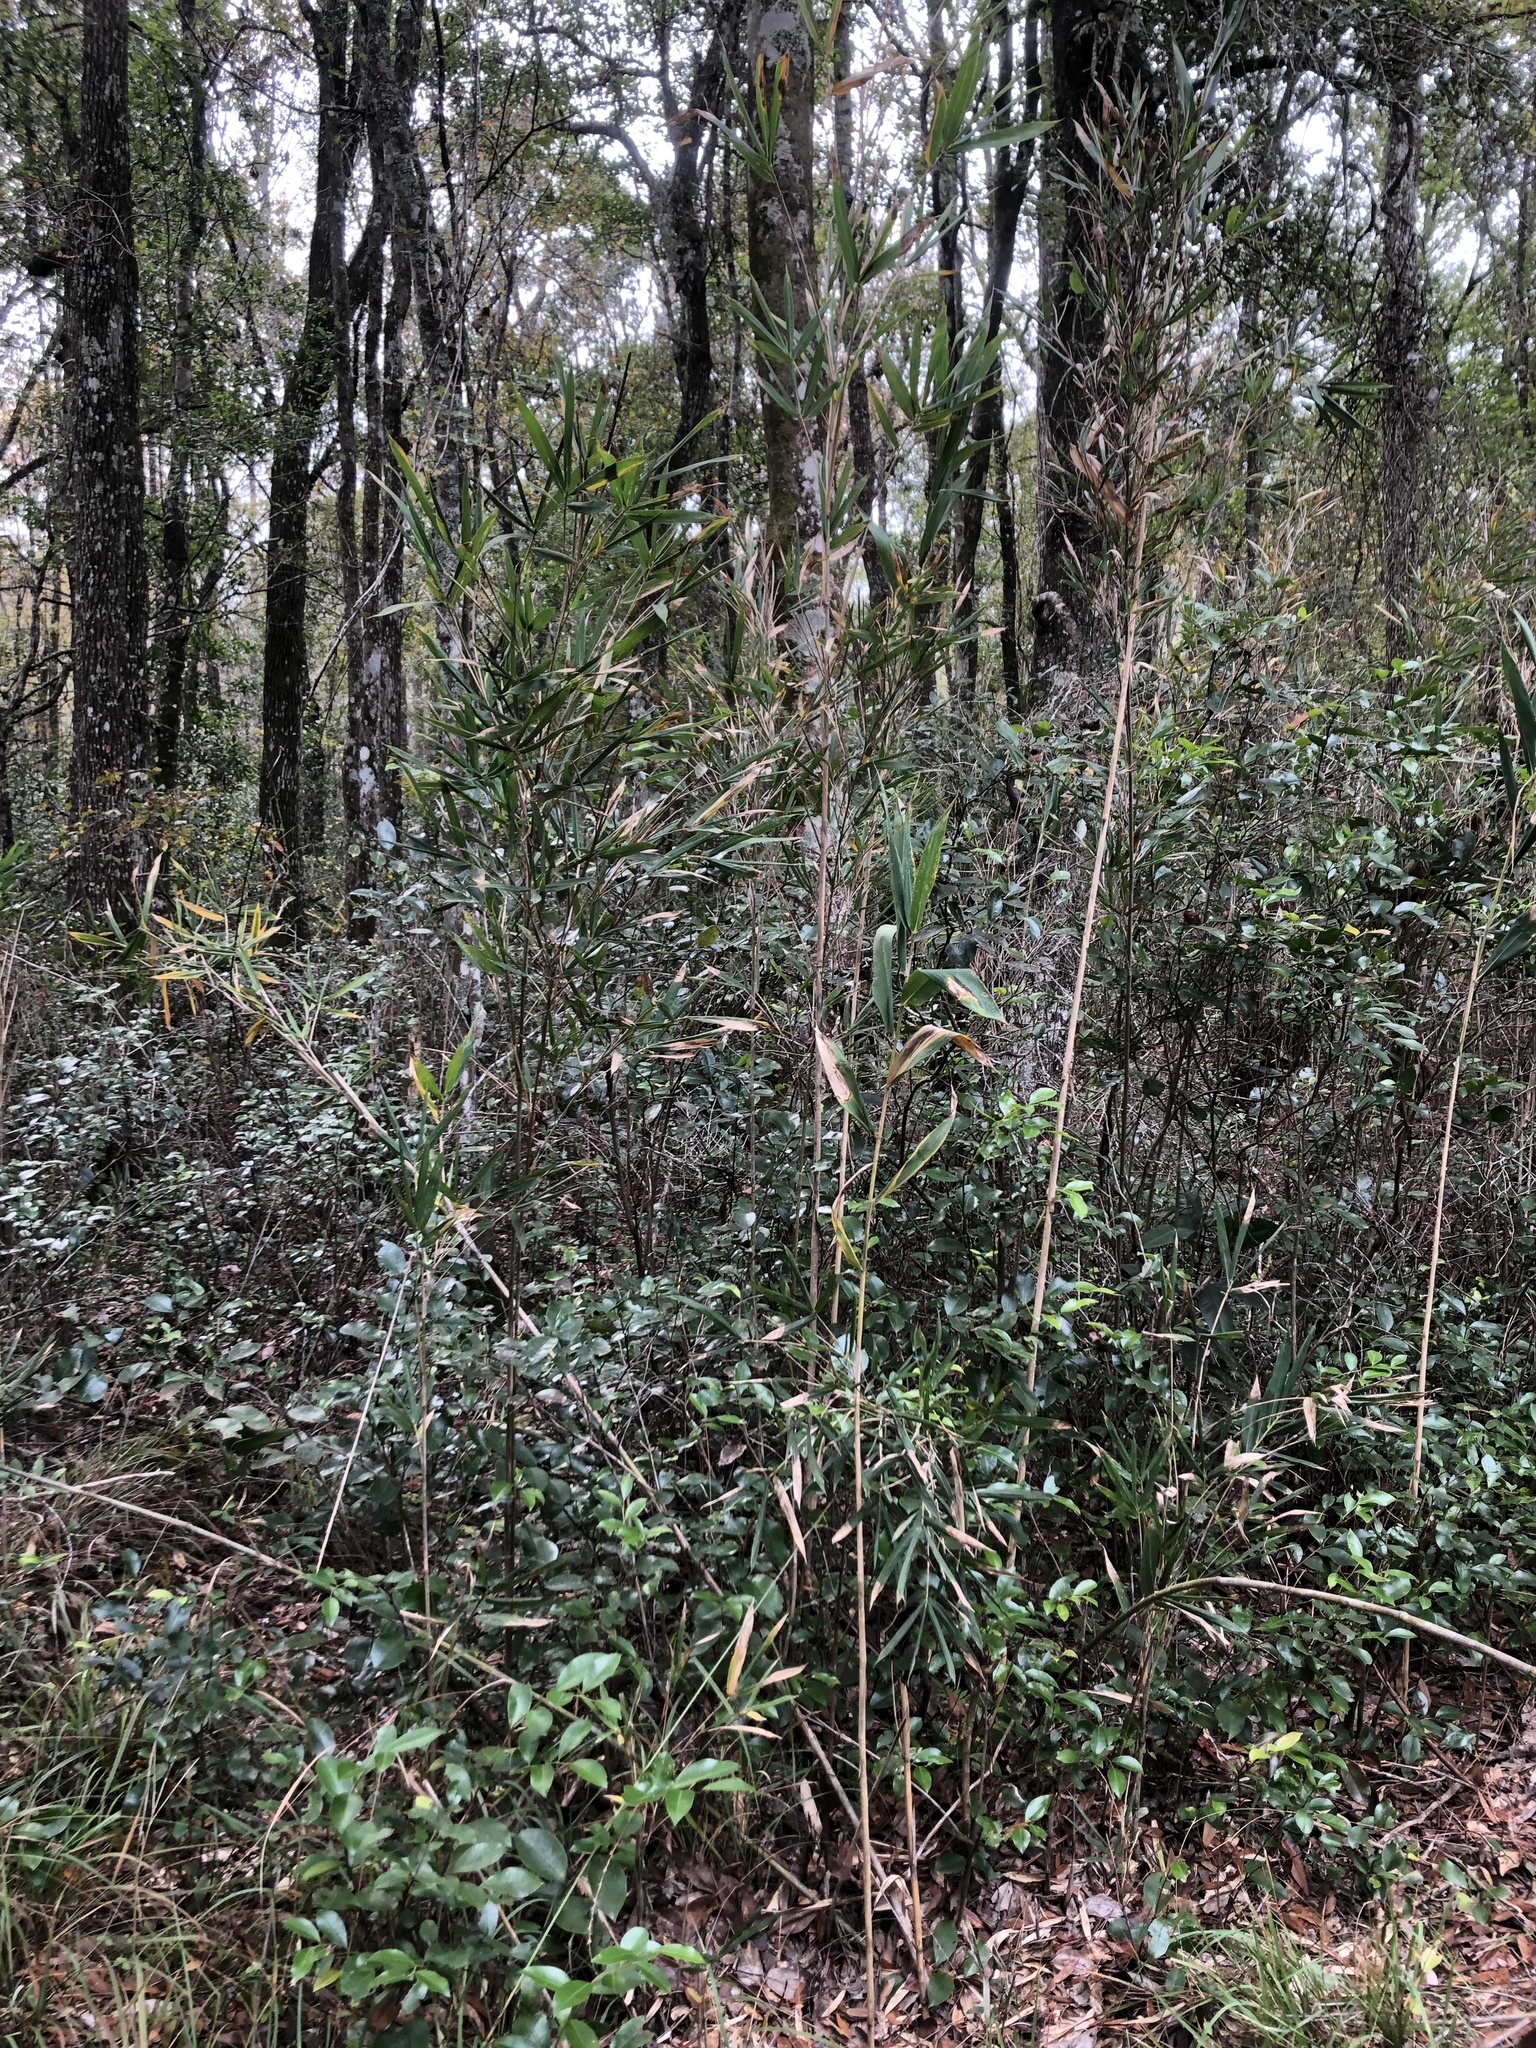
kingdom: Plantae
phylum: Tracheophyta
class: Liliopsida
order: Poales
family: Poaceae
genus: Arundinaria
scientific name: Arundinaria tecta
